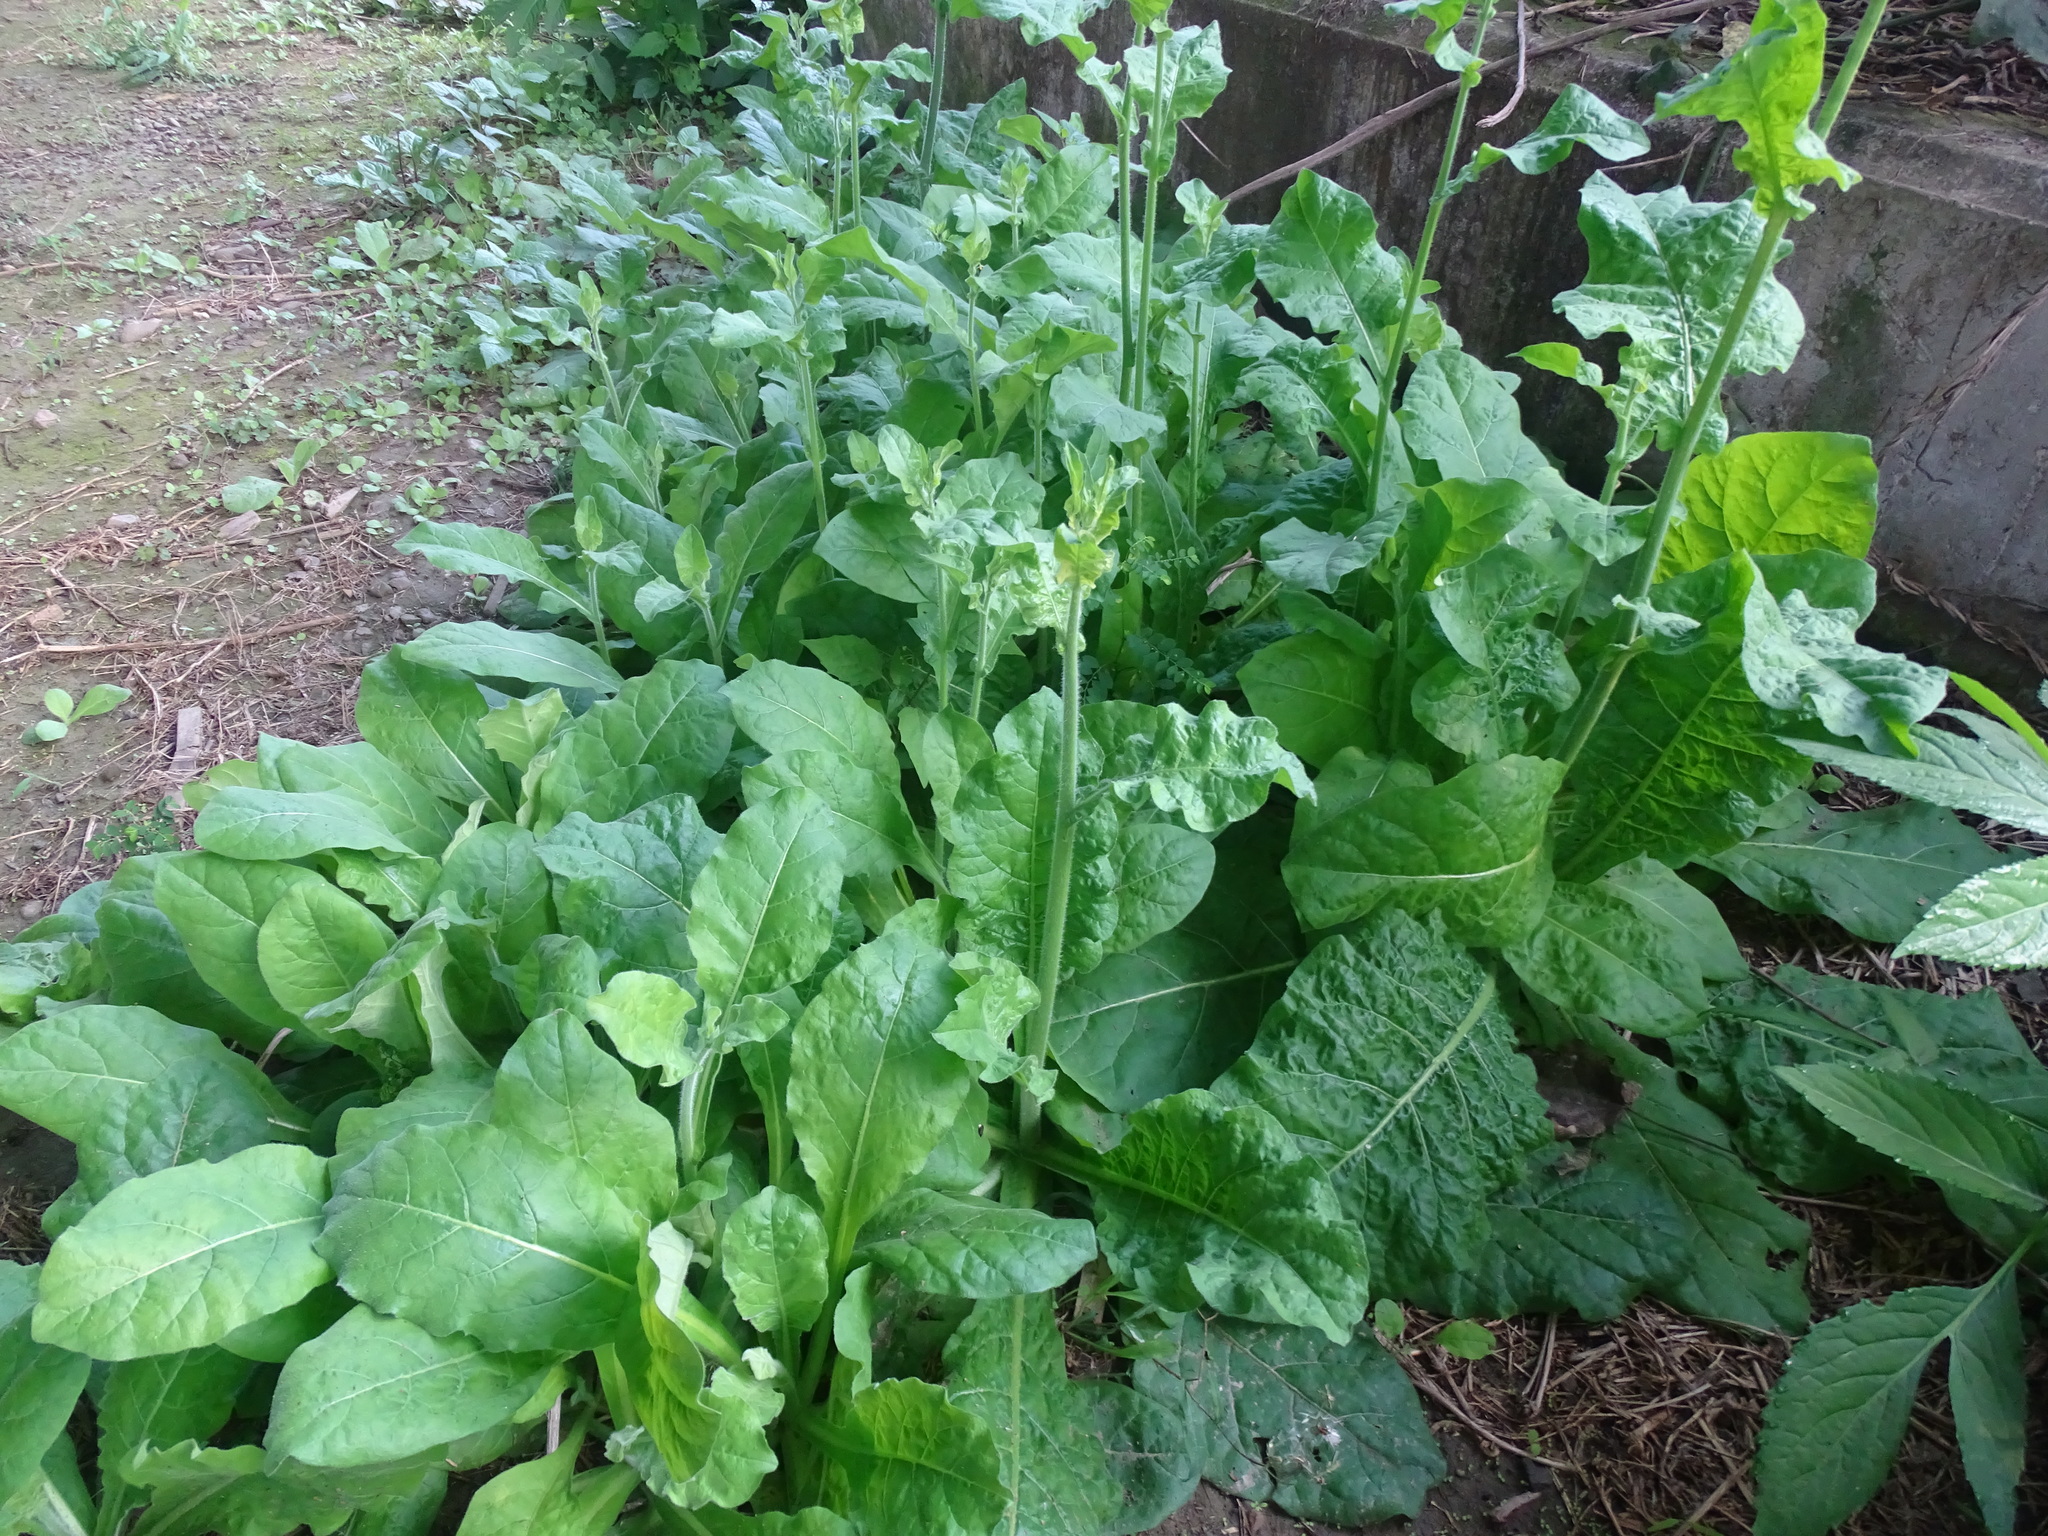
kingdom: Plantae
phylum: Tracheophyta
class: Magnoliopsida
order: Solanales
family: Solanaceae
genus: Nicotiana
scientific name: Nicotiana plumbaginifolia
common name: Tex-mex tobacco
